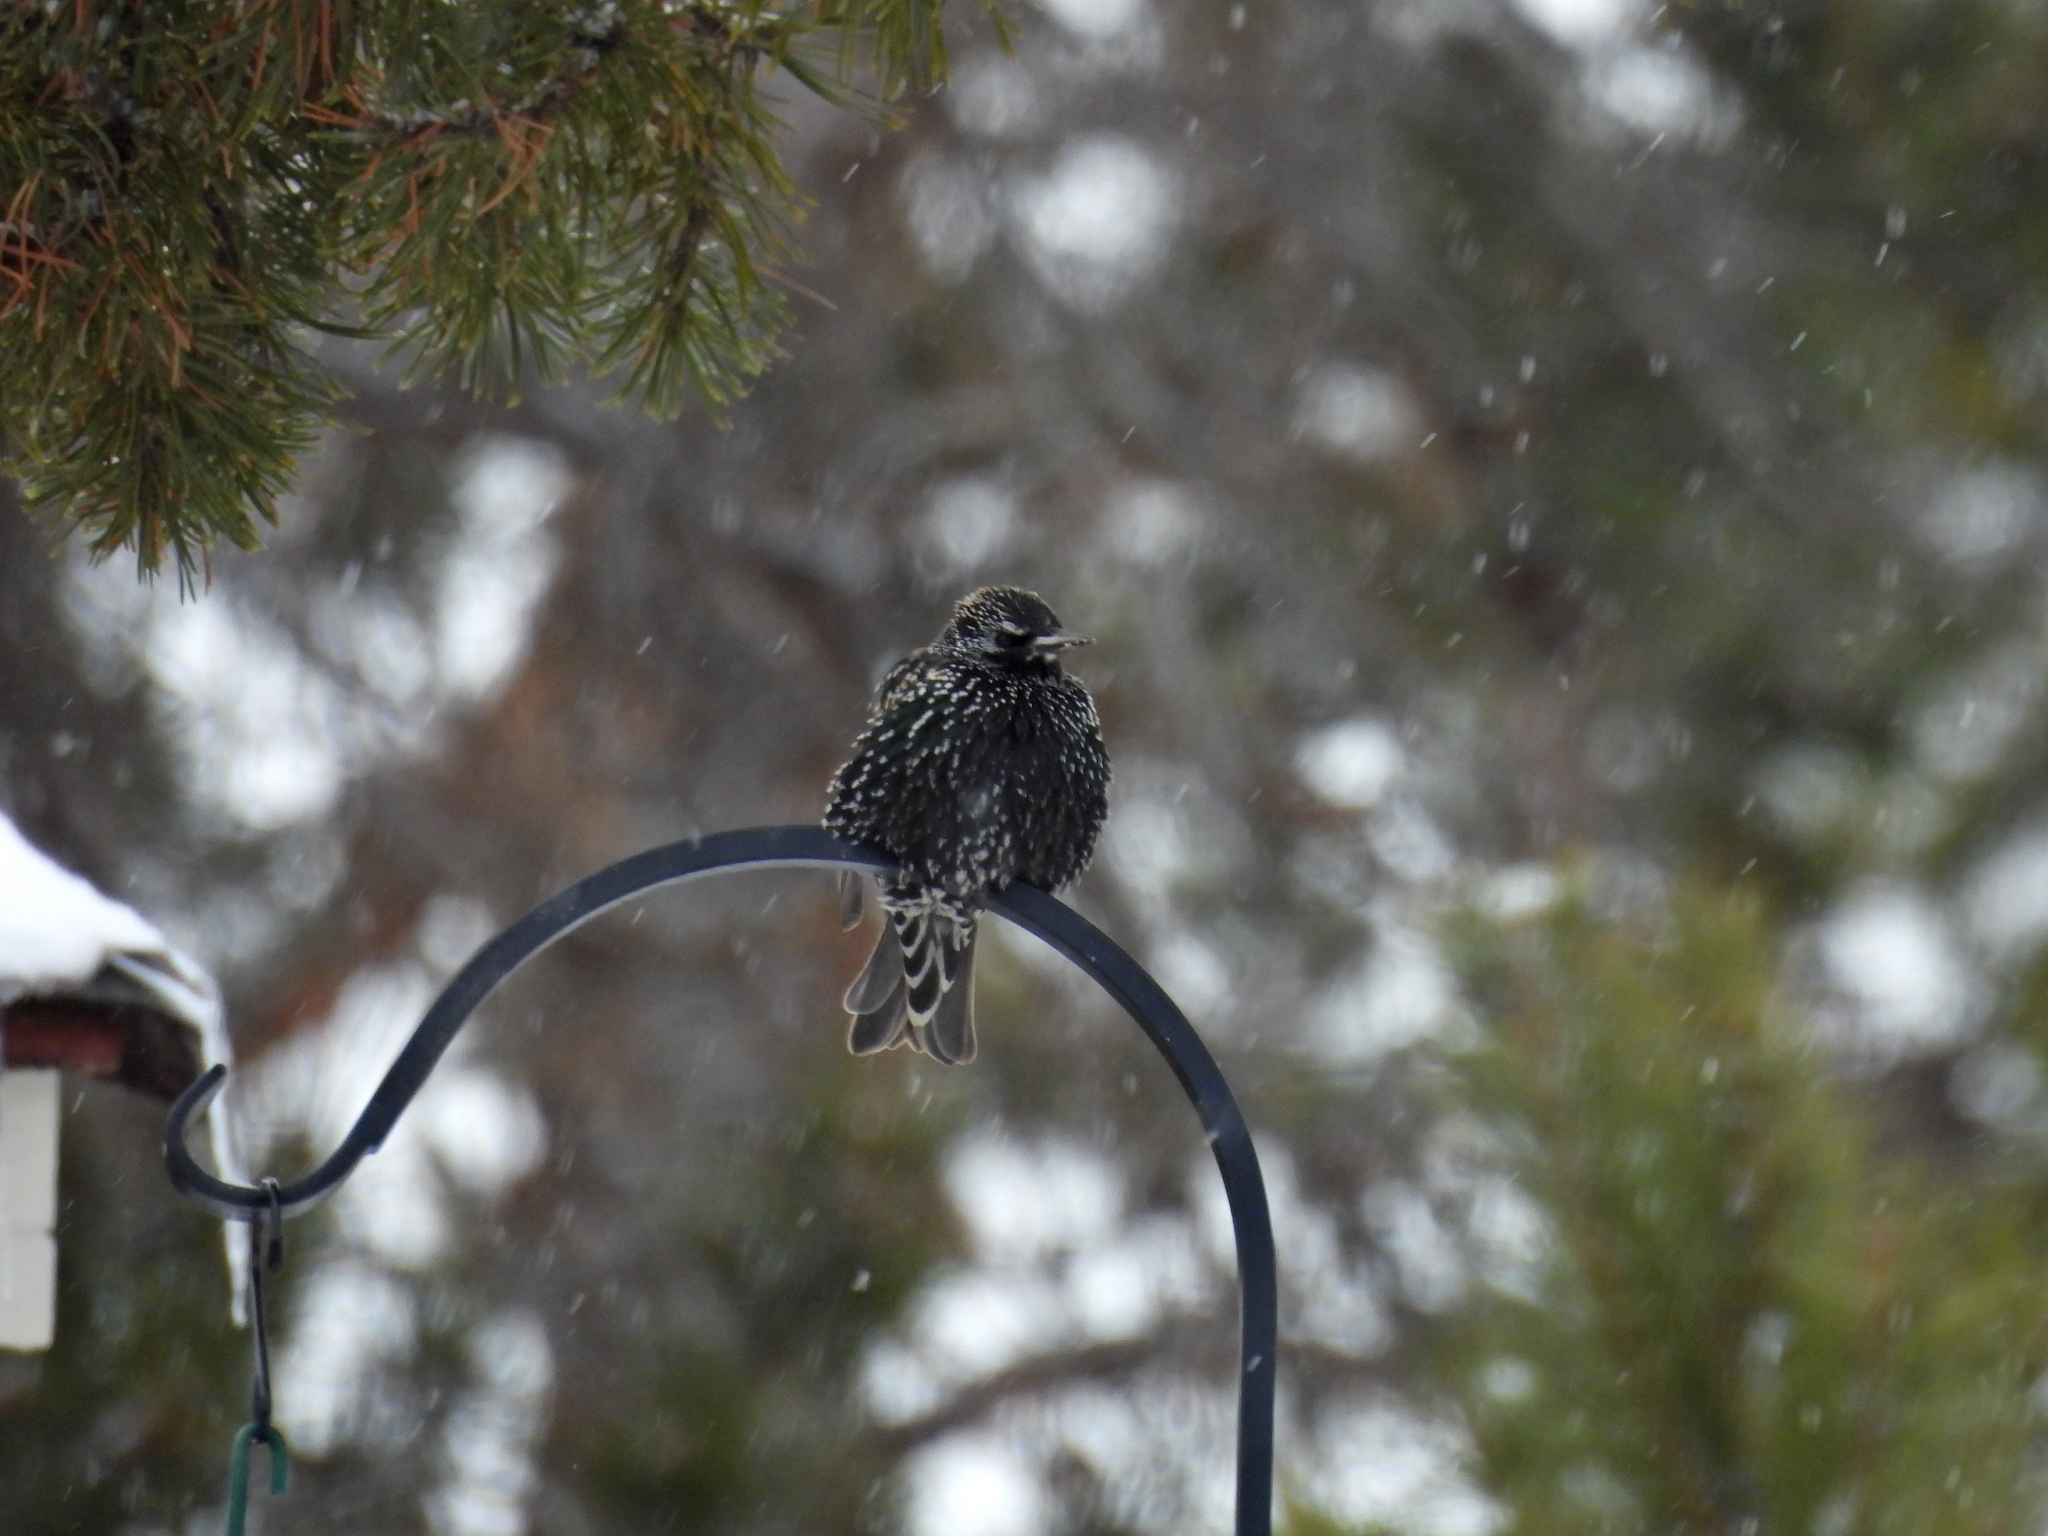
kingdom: Animalia
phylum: Chordata
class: Aves
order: Passeriformes
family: Sturnidae
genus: Sturnus
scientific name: Sturnus vulgaris
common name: Common starling
